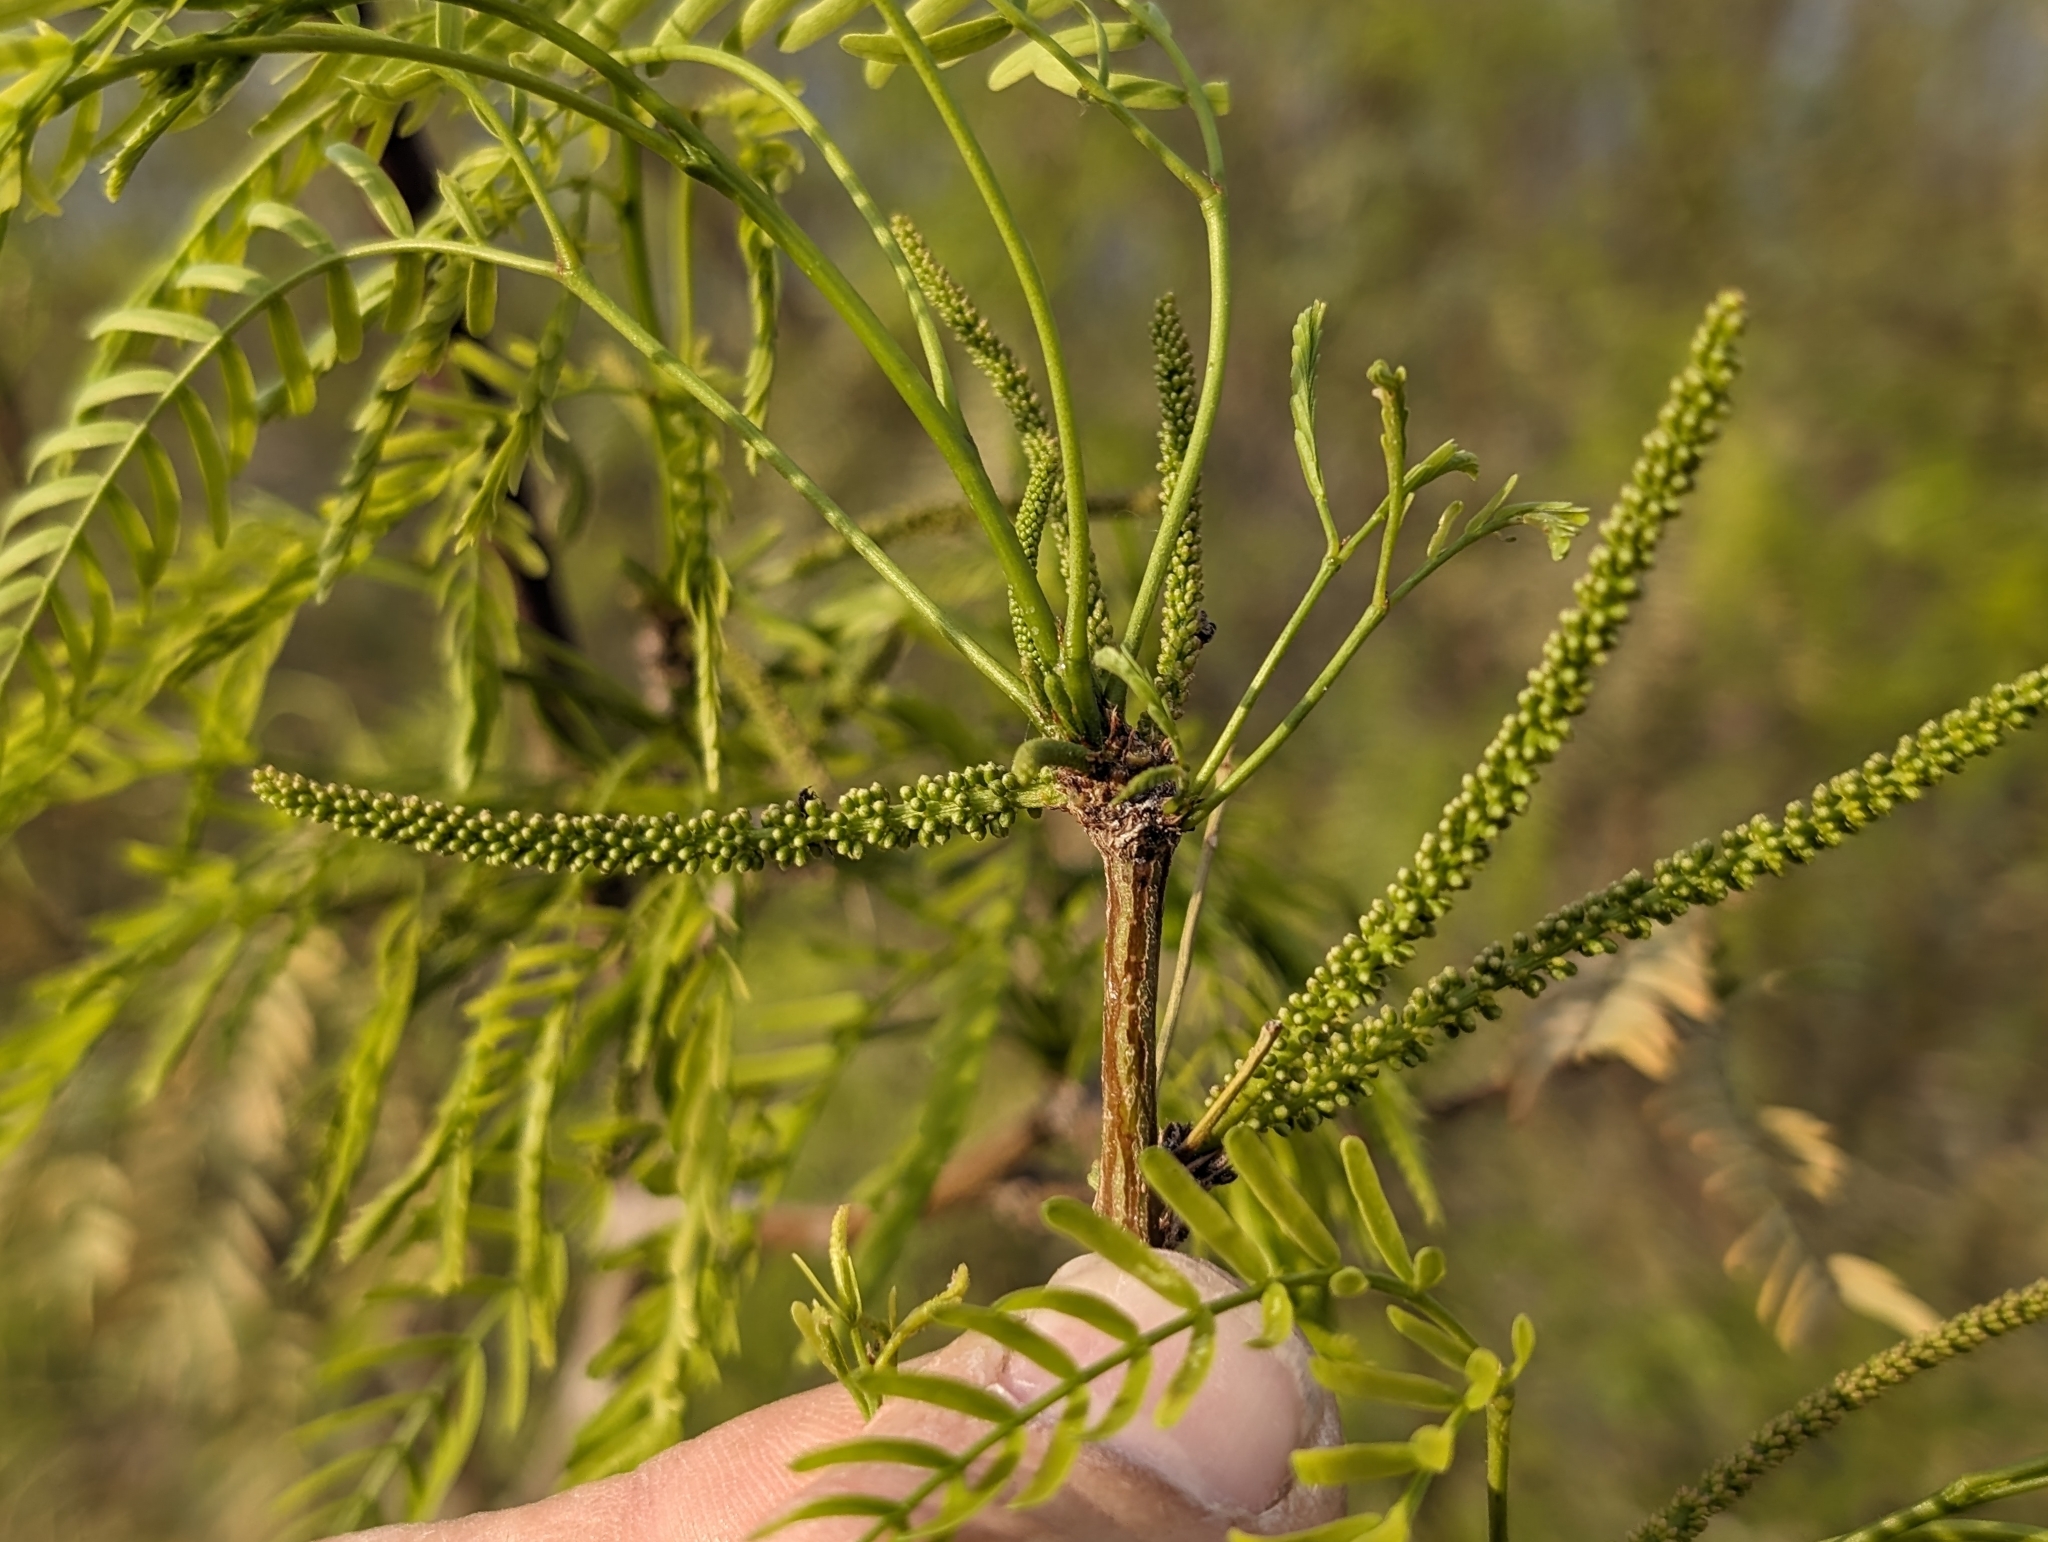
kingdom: Plantae
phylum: Tracheophyta
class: Magnoliopsida
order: Fabales
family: Fabaceae
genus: Prosopis
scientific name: Prosopis pubescens
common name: Screw-bean
